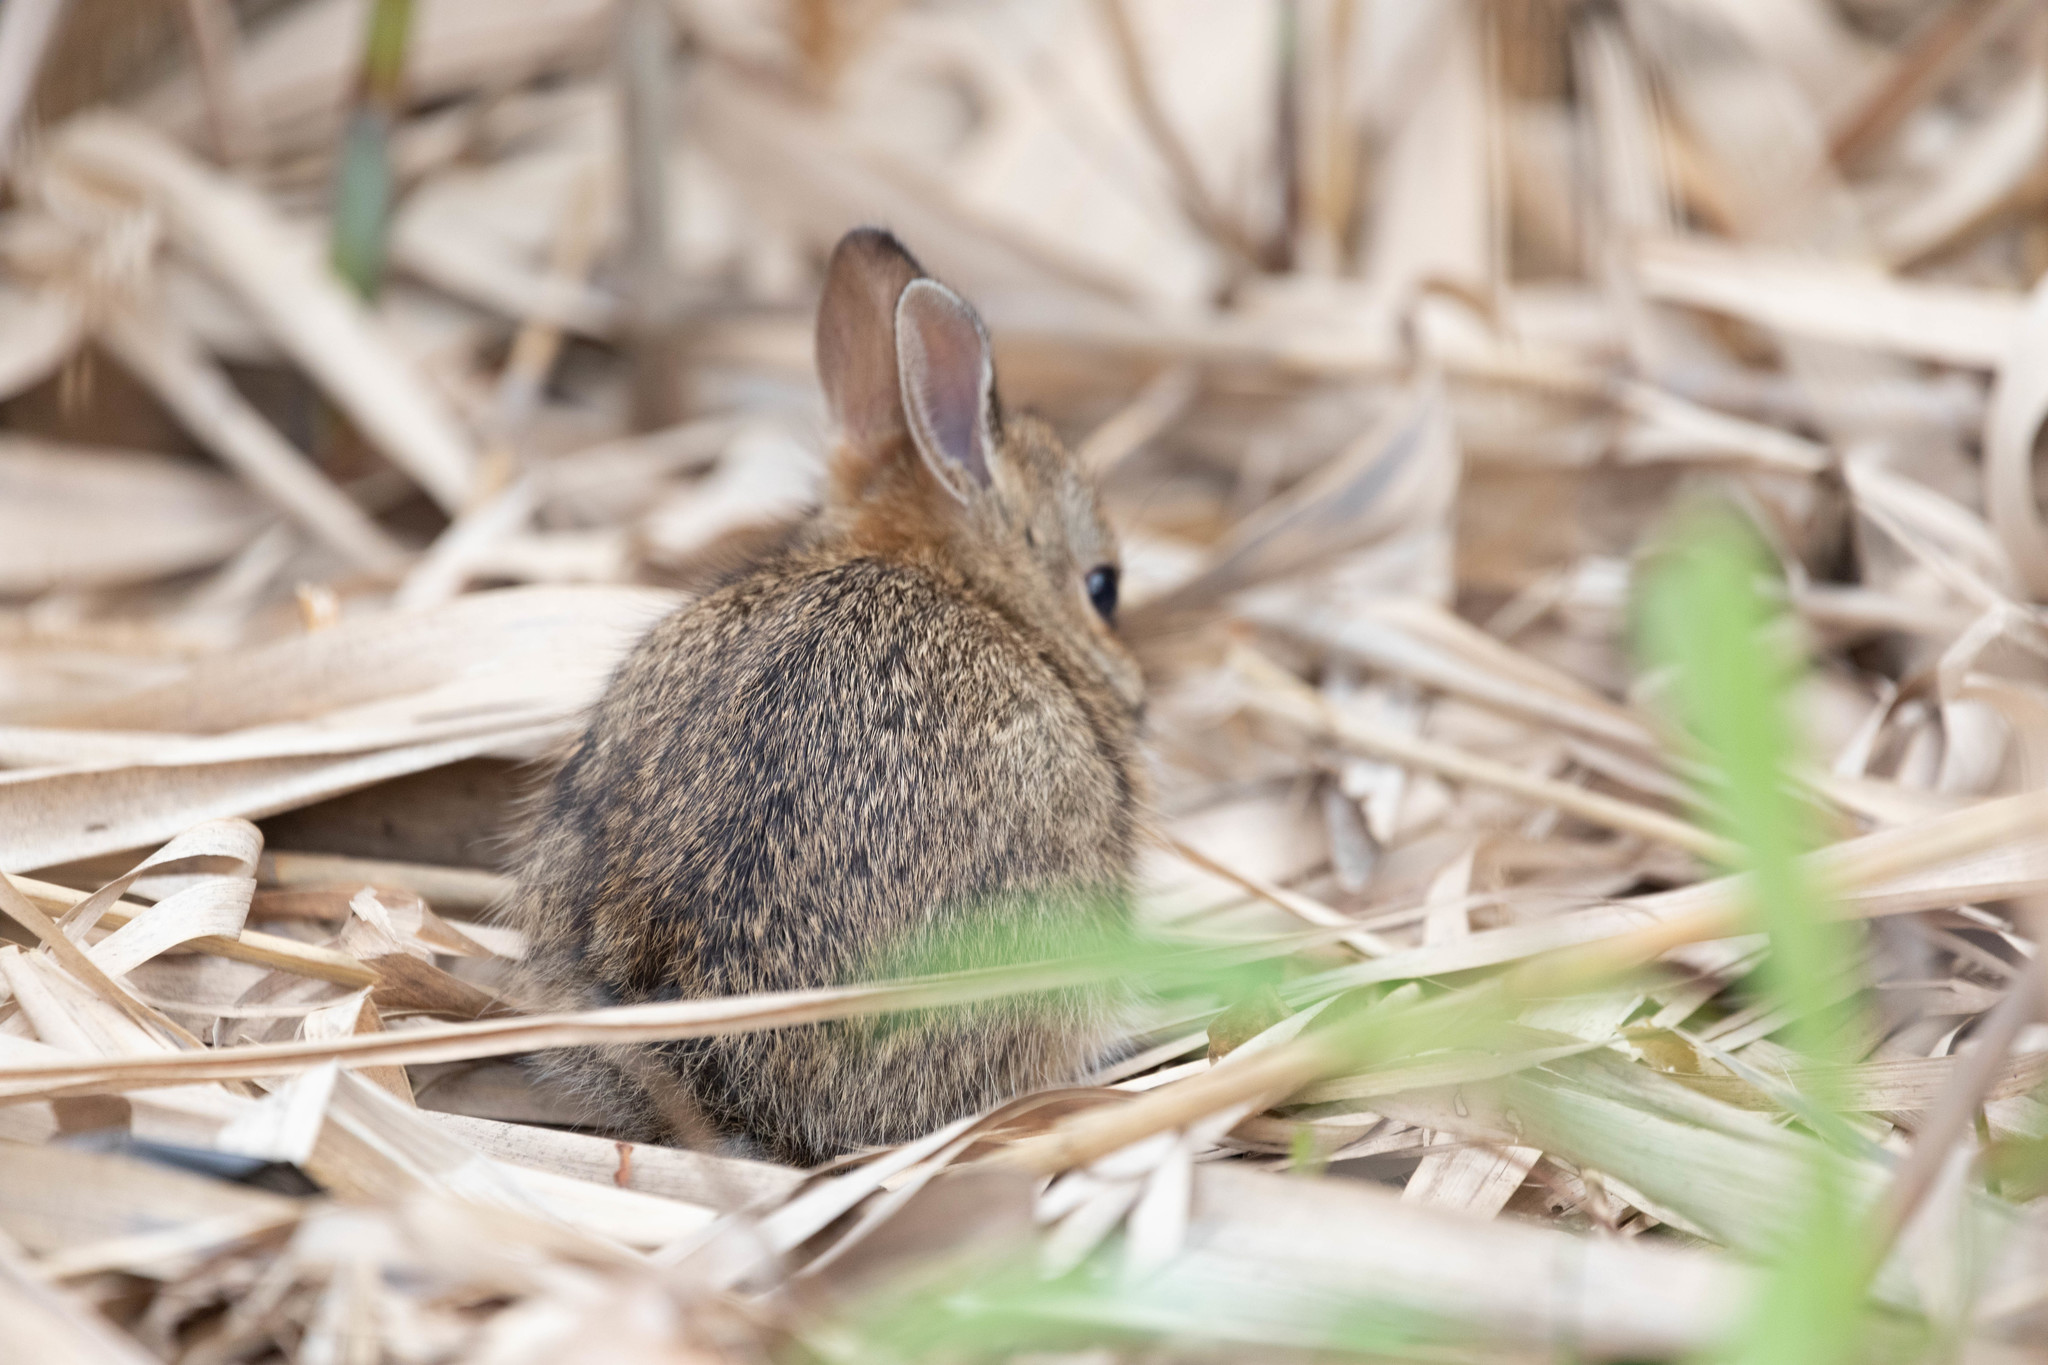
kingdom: Animalia
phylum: Chordata
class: Mammalia
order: Lagomorpha
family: Leporidae
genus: Sylvilagus
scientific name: Sylvilagus floridanus
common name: Eastern cottontail
